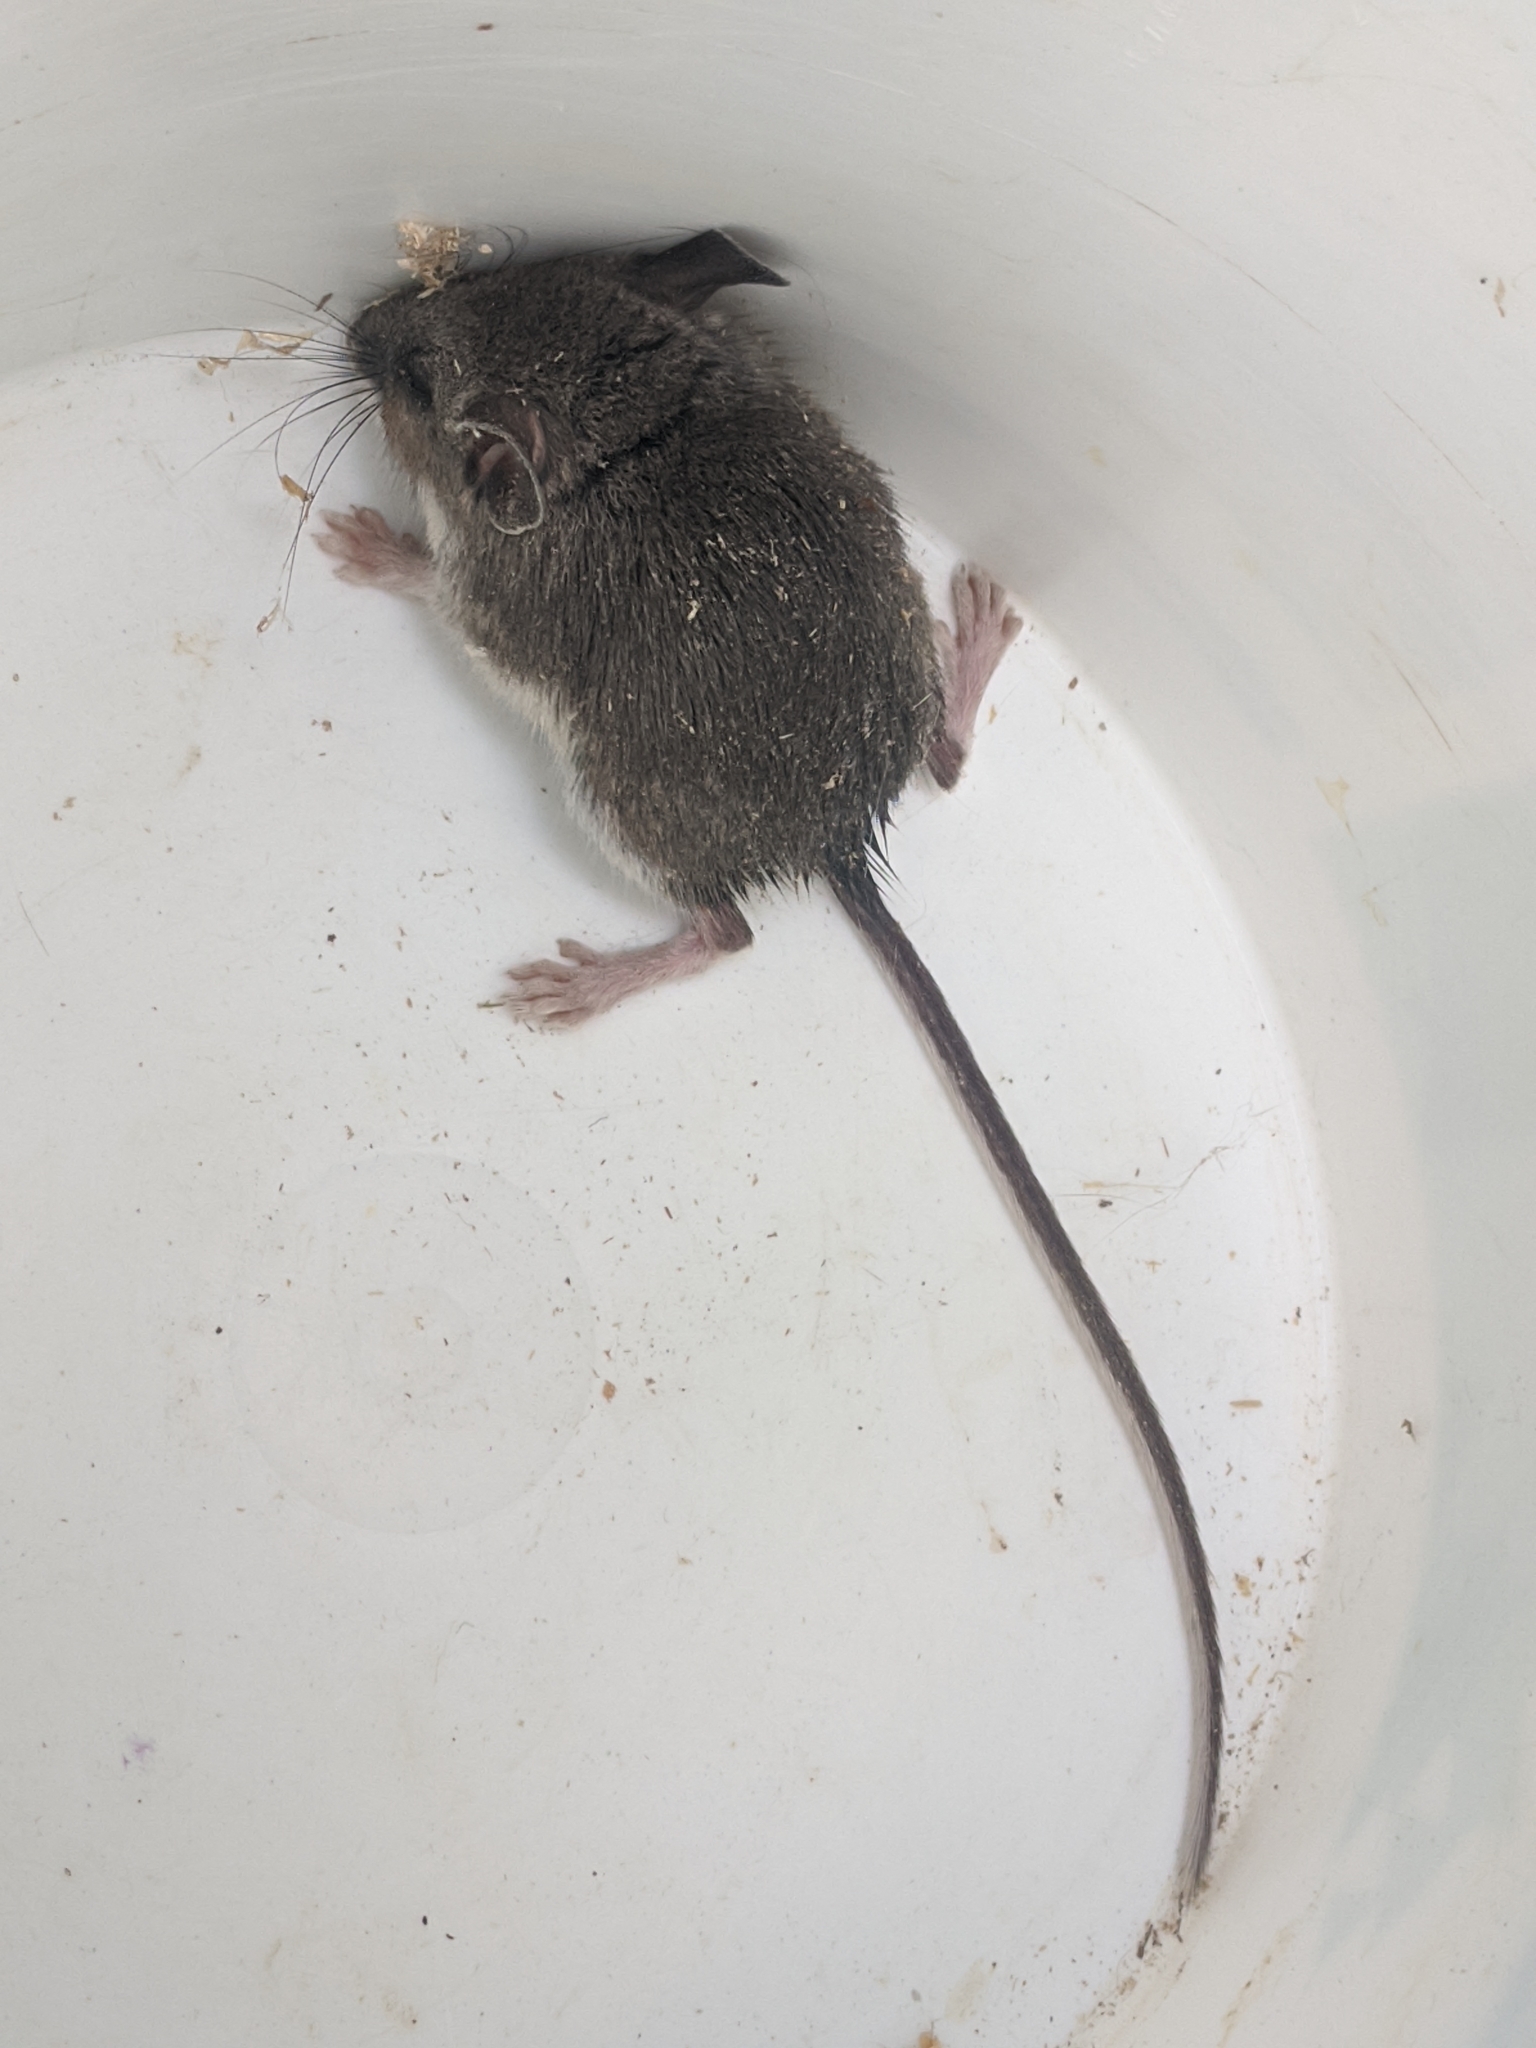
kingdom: Animalia
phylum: Chordata
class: Mammalia
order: Rodentia
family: Cricetidae
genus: Peromyscus
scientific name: Peromyscus
